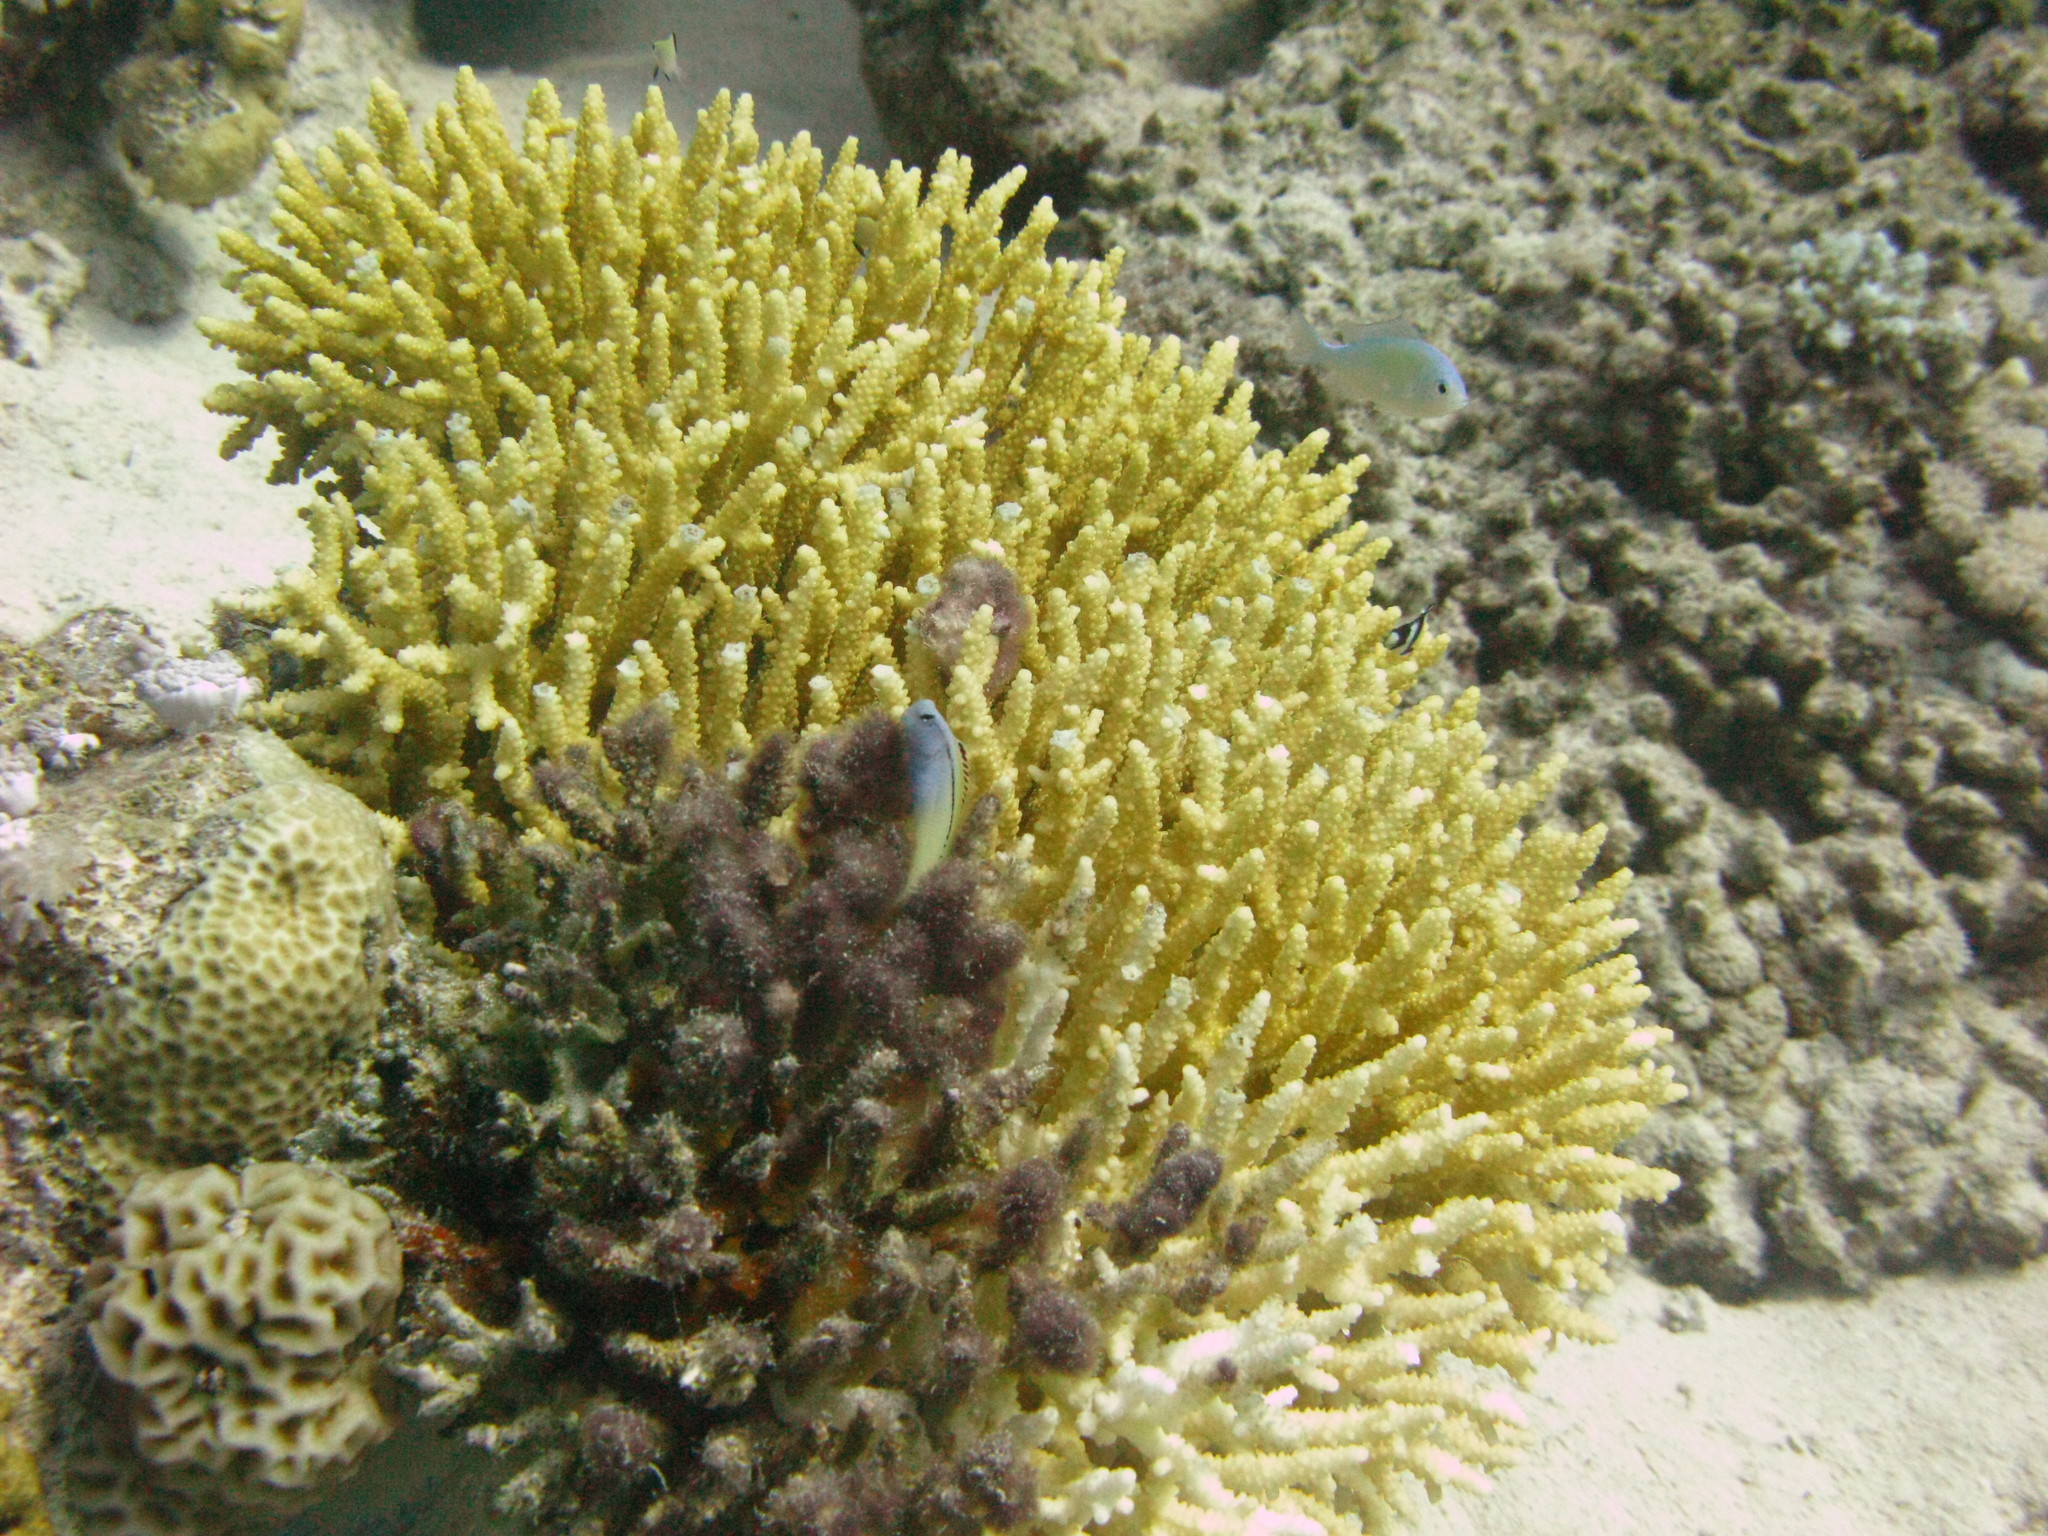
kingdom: Animalia
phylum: Chordata
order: Perciformes
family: Blenniidae
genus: Ecsenius
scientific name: Ecsenius gravieri
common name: Red sea mimic blenny
